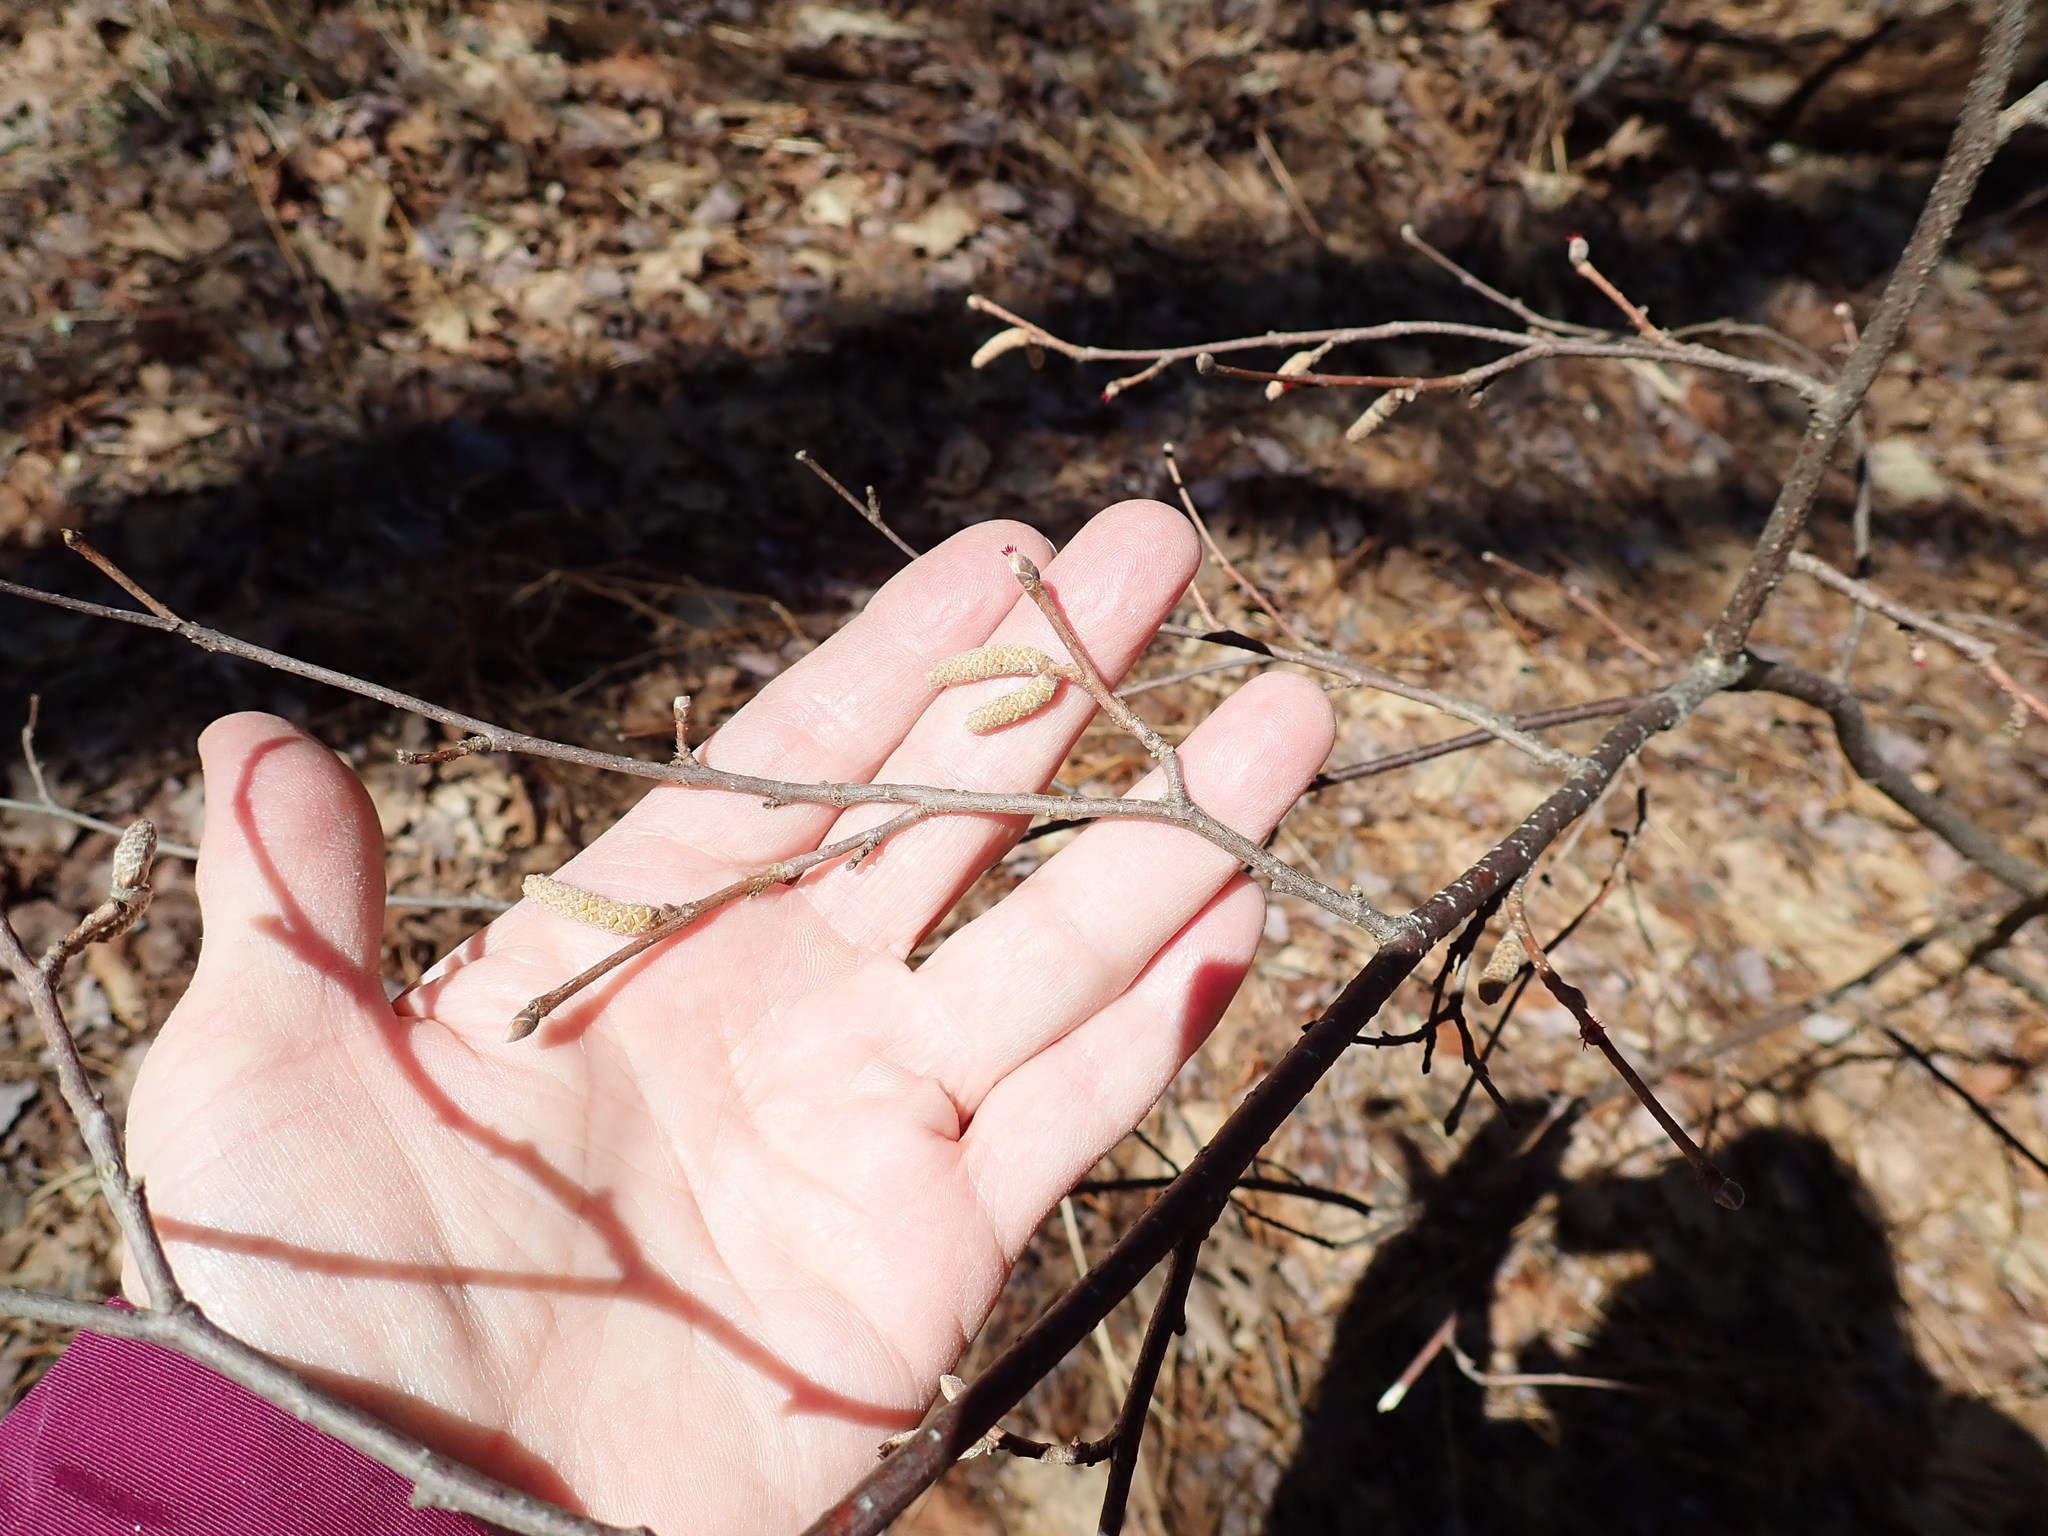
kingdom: Plantae
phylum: Tracheophyta
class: Magnoliopsida
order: Fagales
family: Betulaceae
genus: Corylus
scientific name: Corylus cornuta
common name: Beaked hazel
